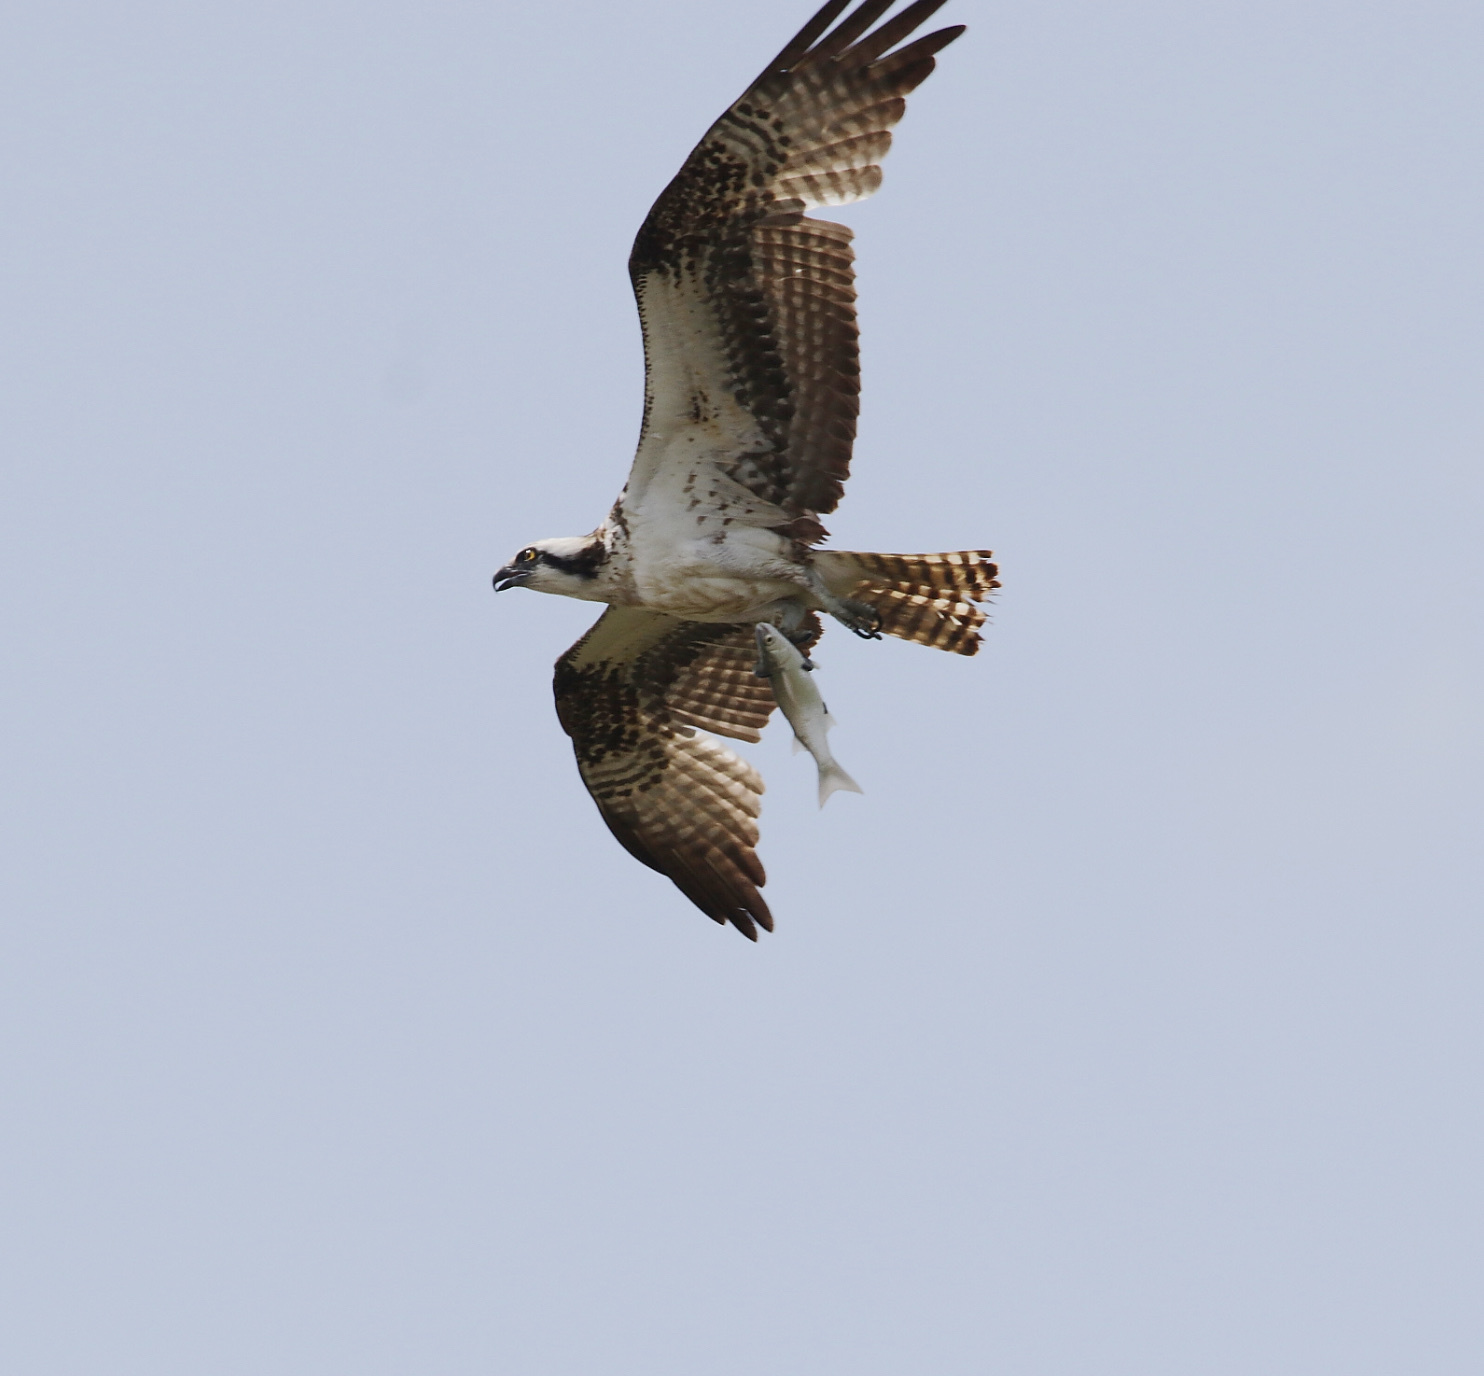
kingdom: Animalia
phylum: Chordata
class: Aves
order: Accipitriformes
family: Pandionidae
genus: Pandion
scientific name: Pandion haliaetus
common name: Osprey
